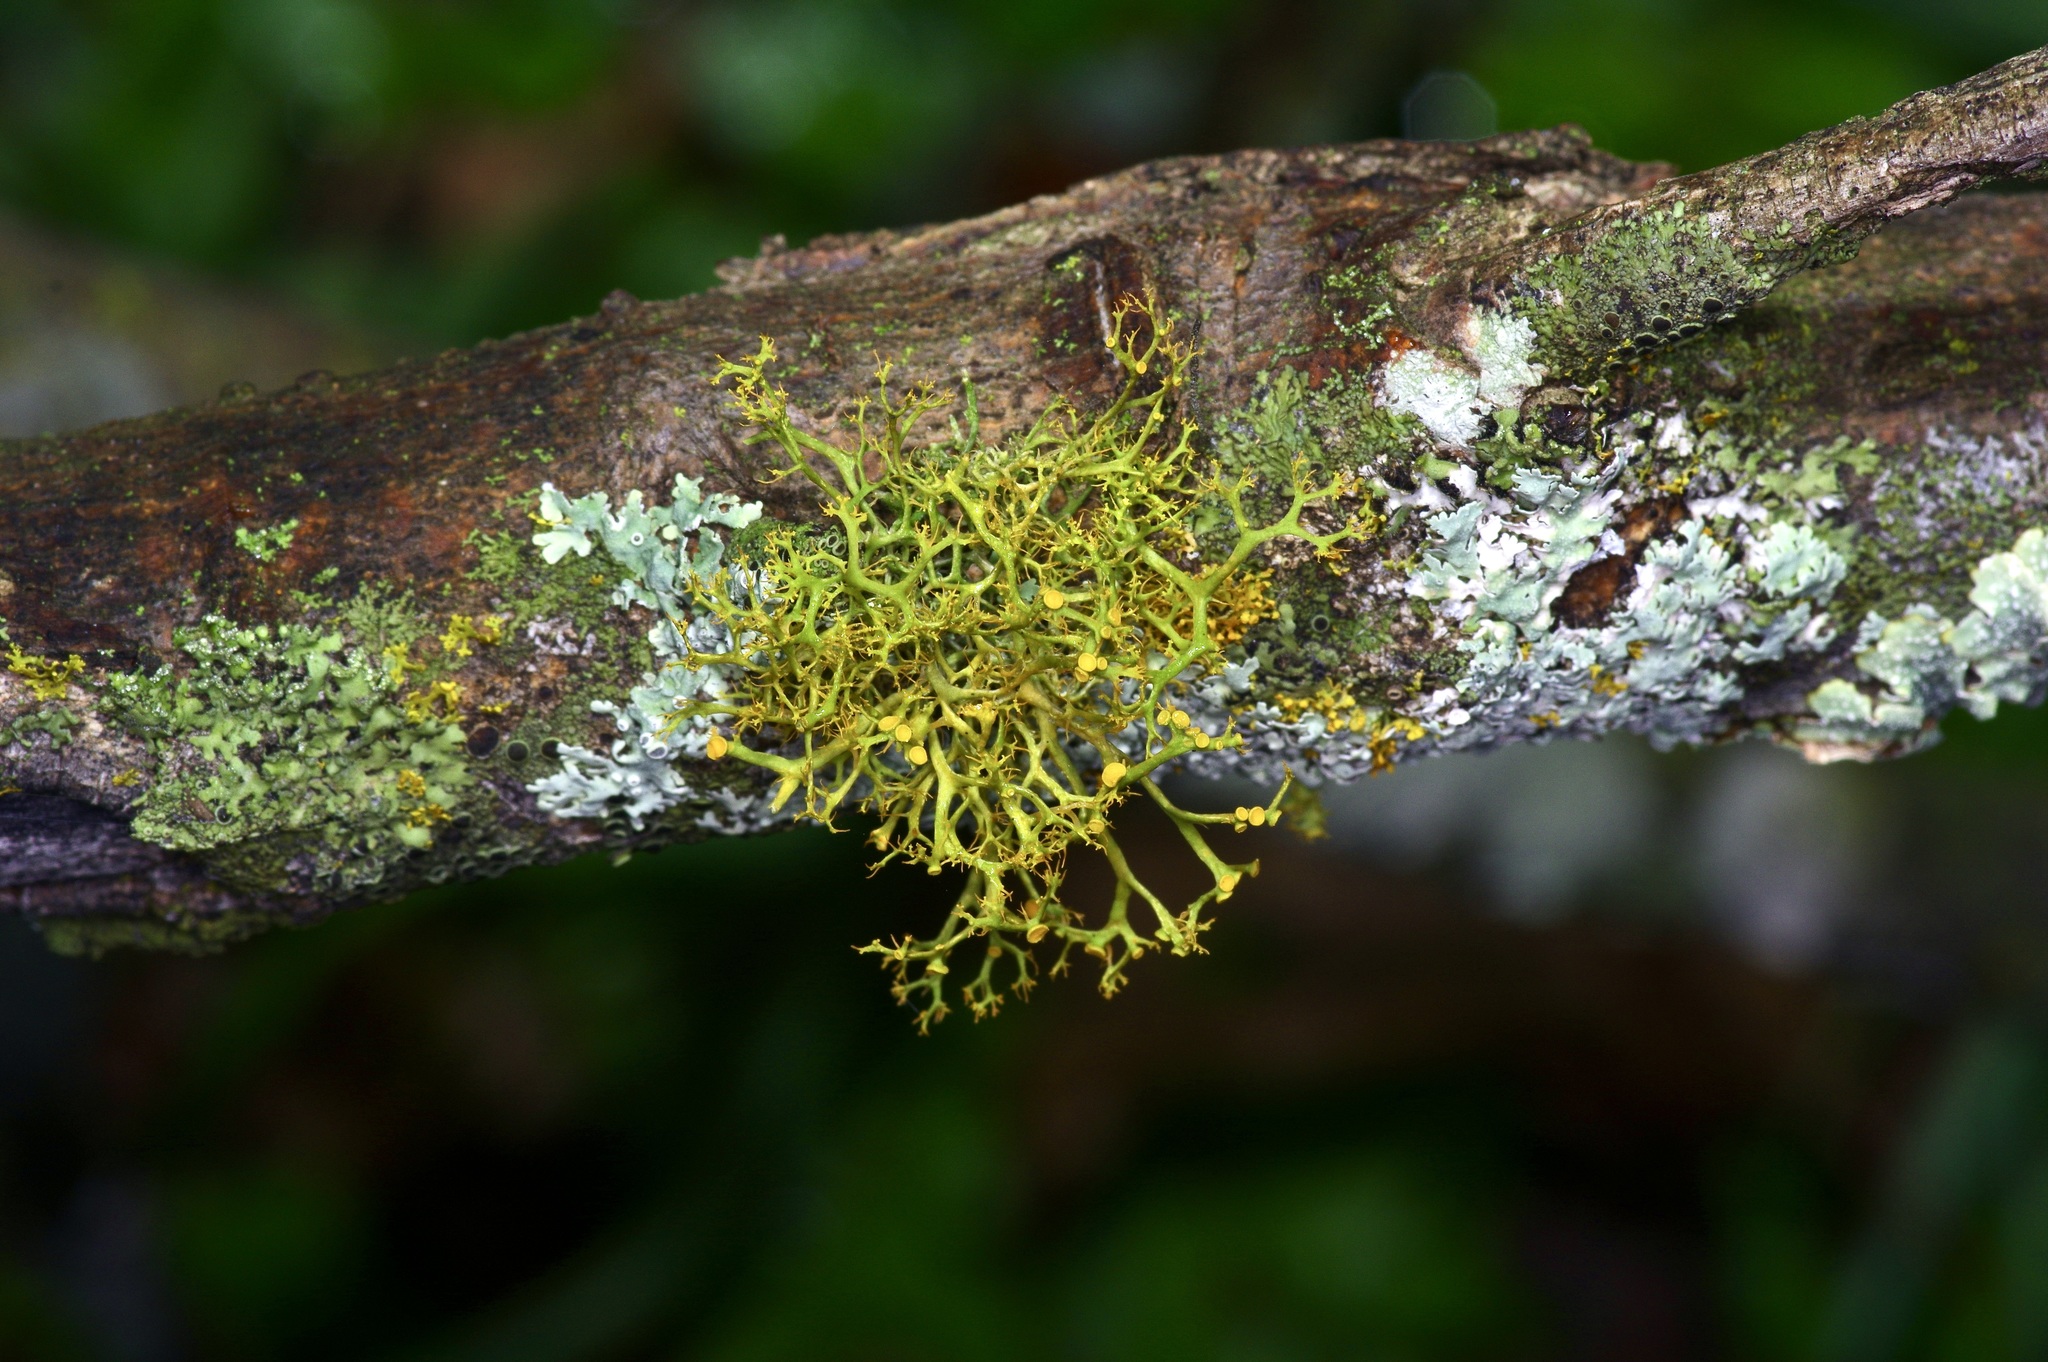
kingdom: Fungi
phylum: Ascomycota
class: Lecanoromycetes
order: Teloschistales
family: Teloschistaceae
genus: Teloschistes
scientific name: Teloschistes exilis
